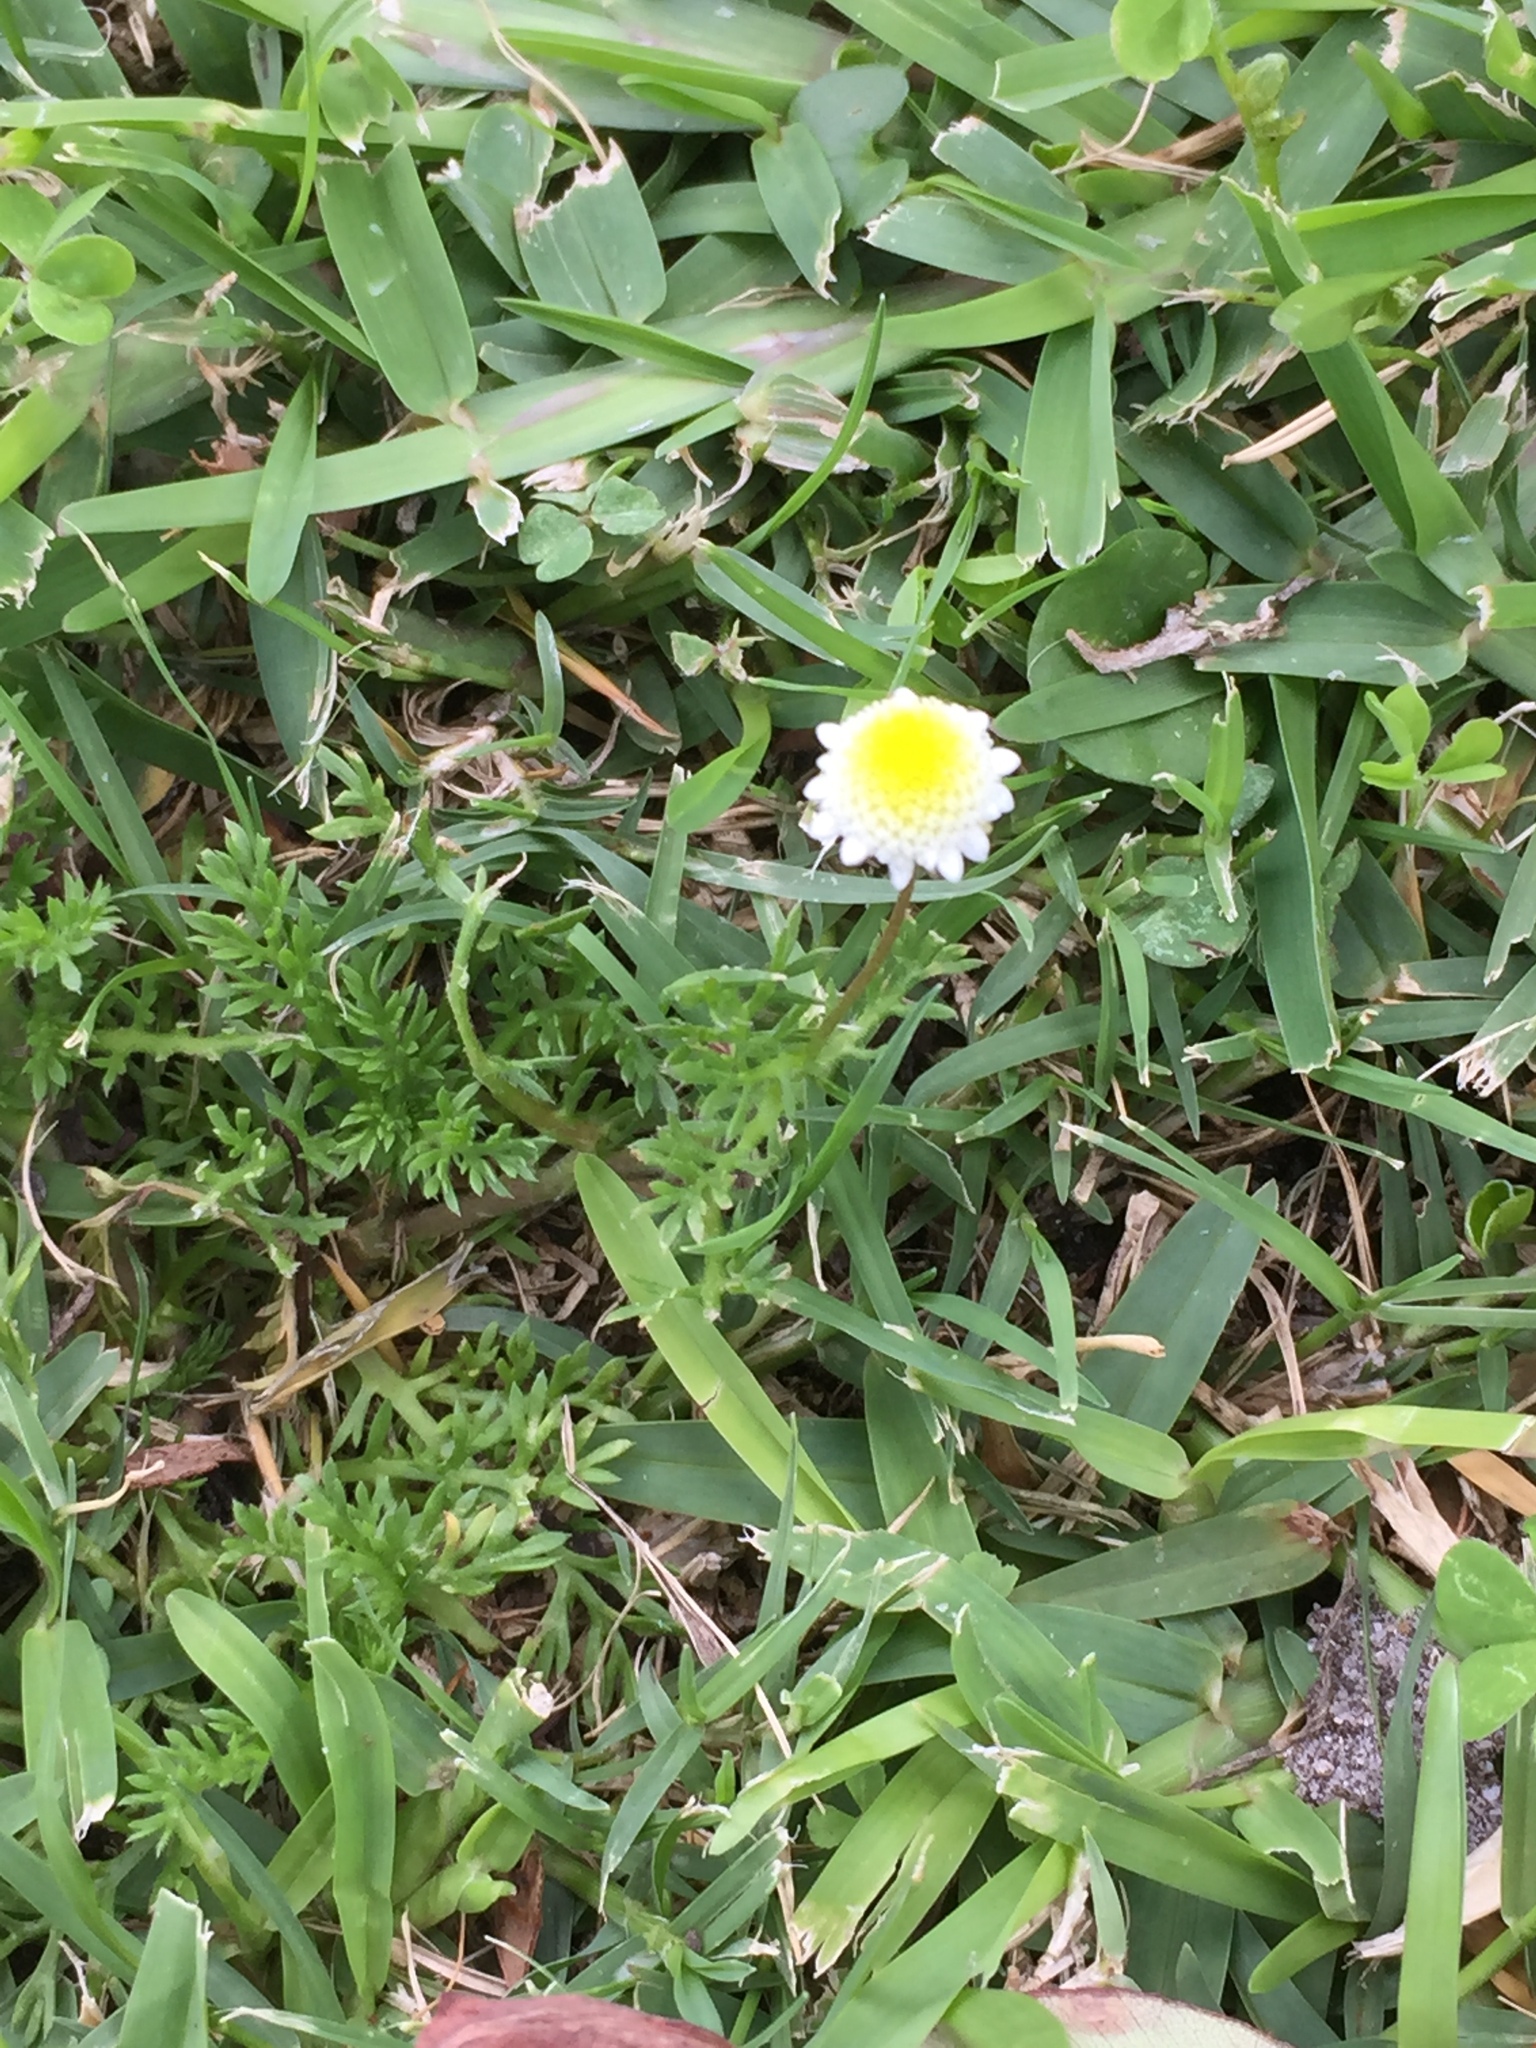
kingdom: Plantae
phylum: Tracheophyta
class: Magnoliopsida
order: Asterales
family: Asteraceae
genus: Cotula
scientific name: Cotula turbinata
